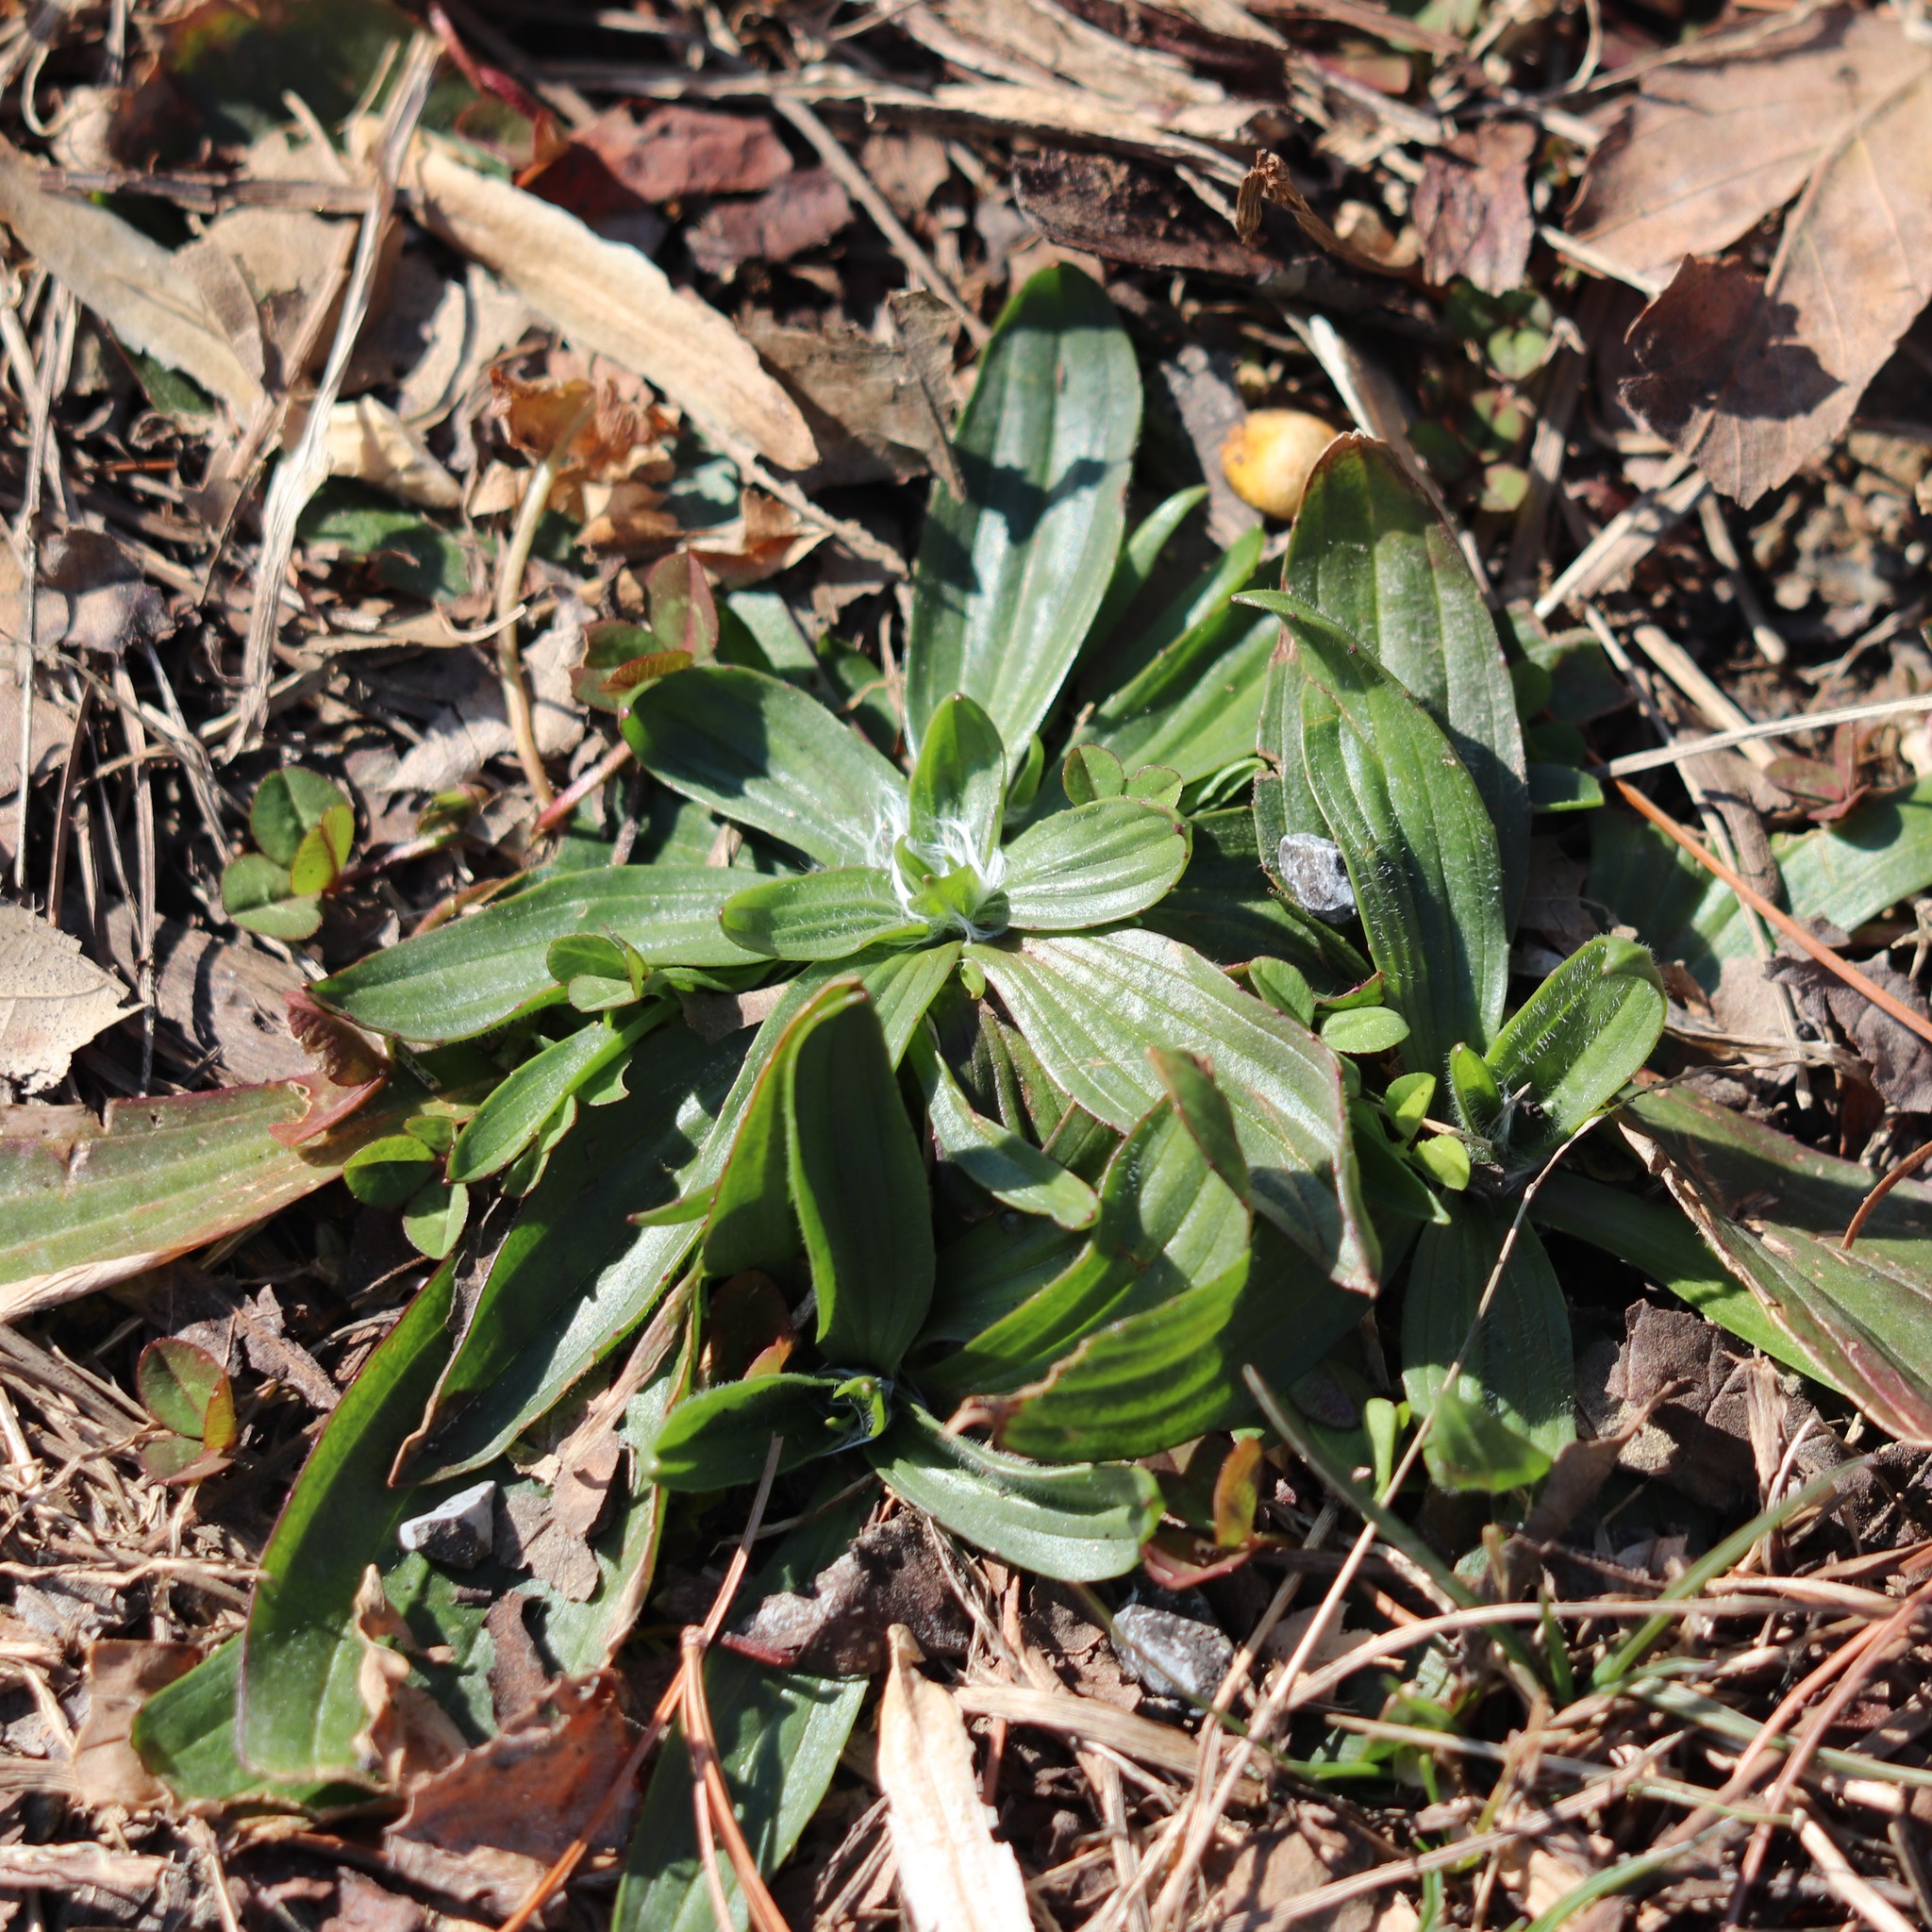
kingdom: Plantae
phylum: Tracheophyta
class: Magnoliopsida
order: Lamiales
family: Plantaginaceae
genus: Plantago
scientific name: Plantago lanceolata
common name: Ribwort plantain
